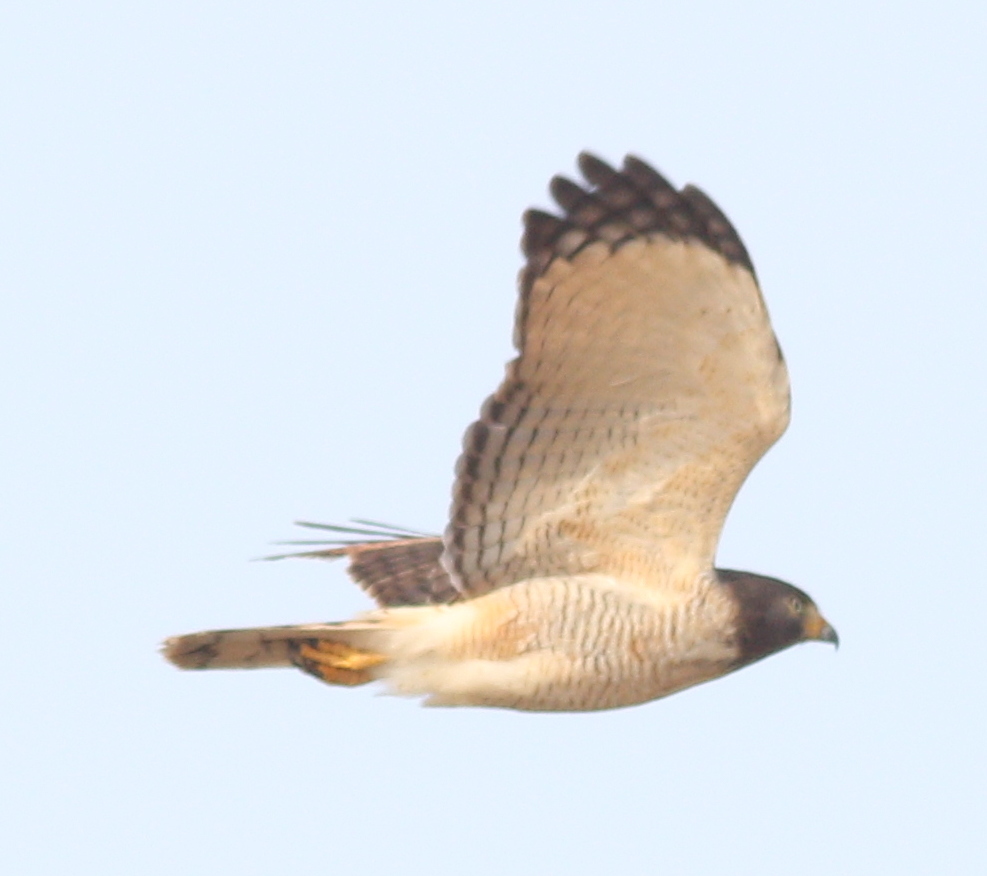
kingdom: Animalia
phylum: Chordata
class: Aves
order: Accipitriformes
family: Accipitridae
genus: Rupornis
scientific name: Rupornis magnirostris
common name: Roadside hawk
